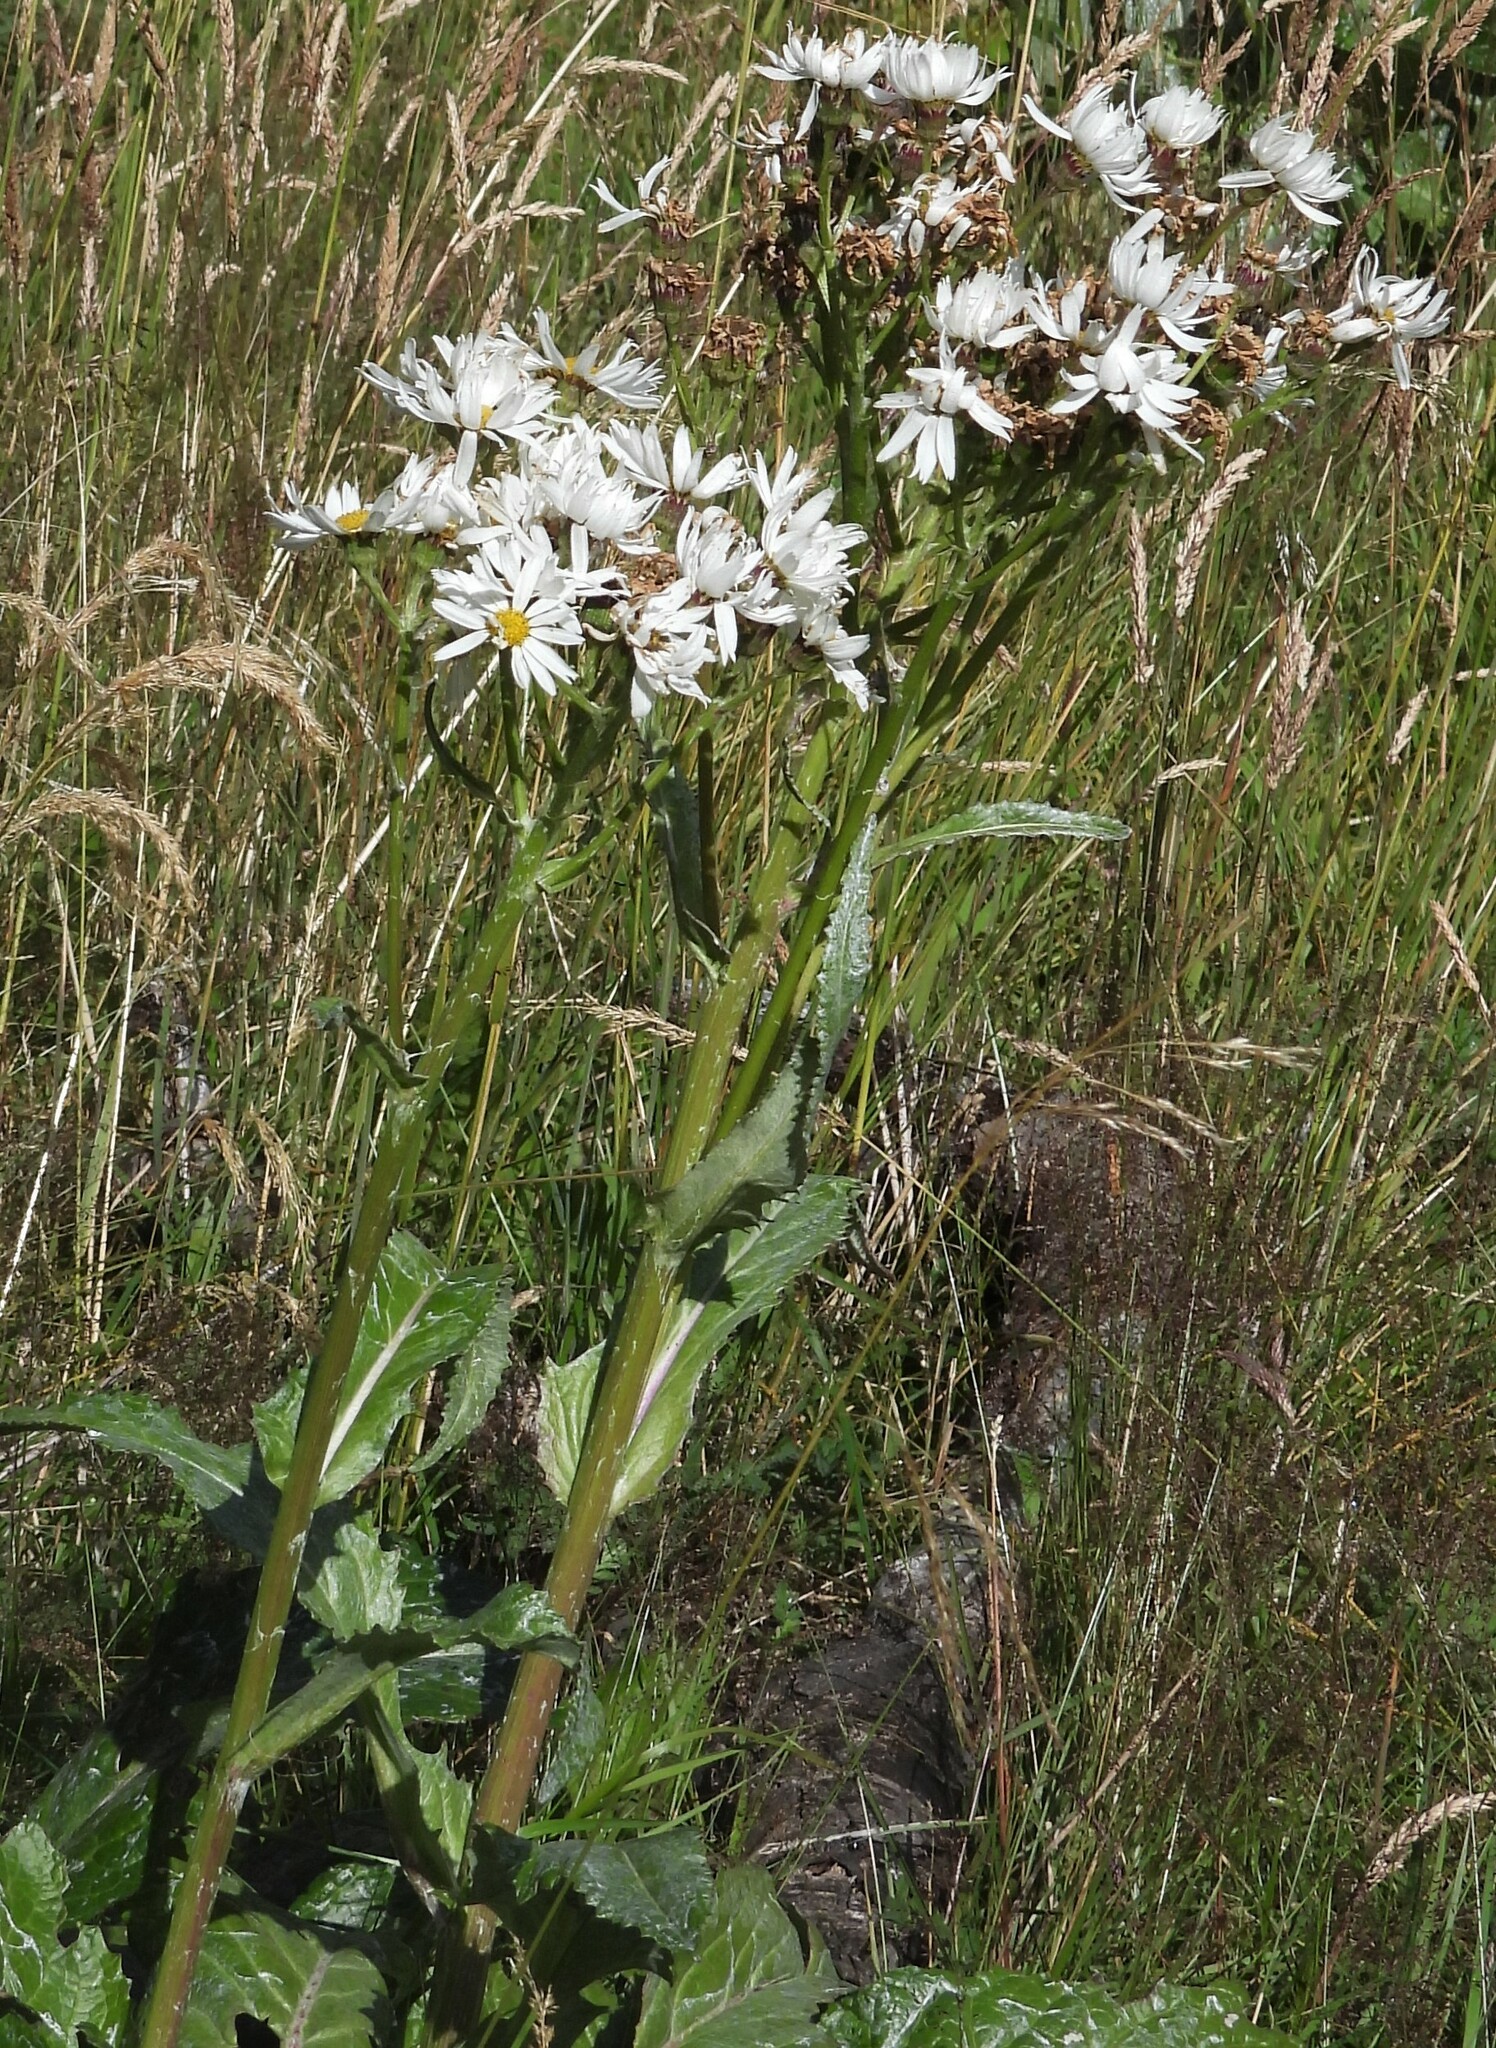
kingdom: Plantae
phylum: Tracheophyta
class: Magnoliopsida
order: Asterales
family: Asteraceae
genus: Senecio
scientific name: Senecio smithii
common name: Magellan ragwort
